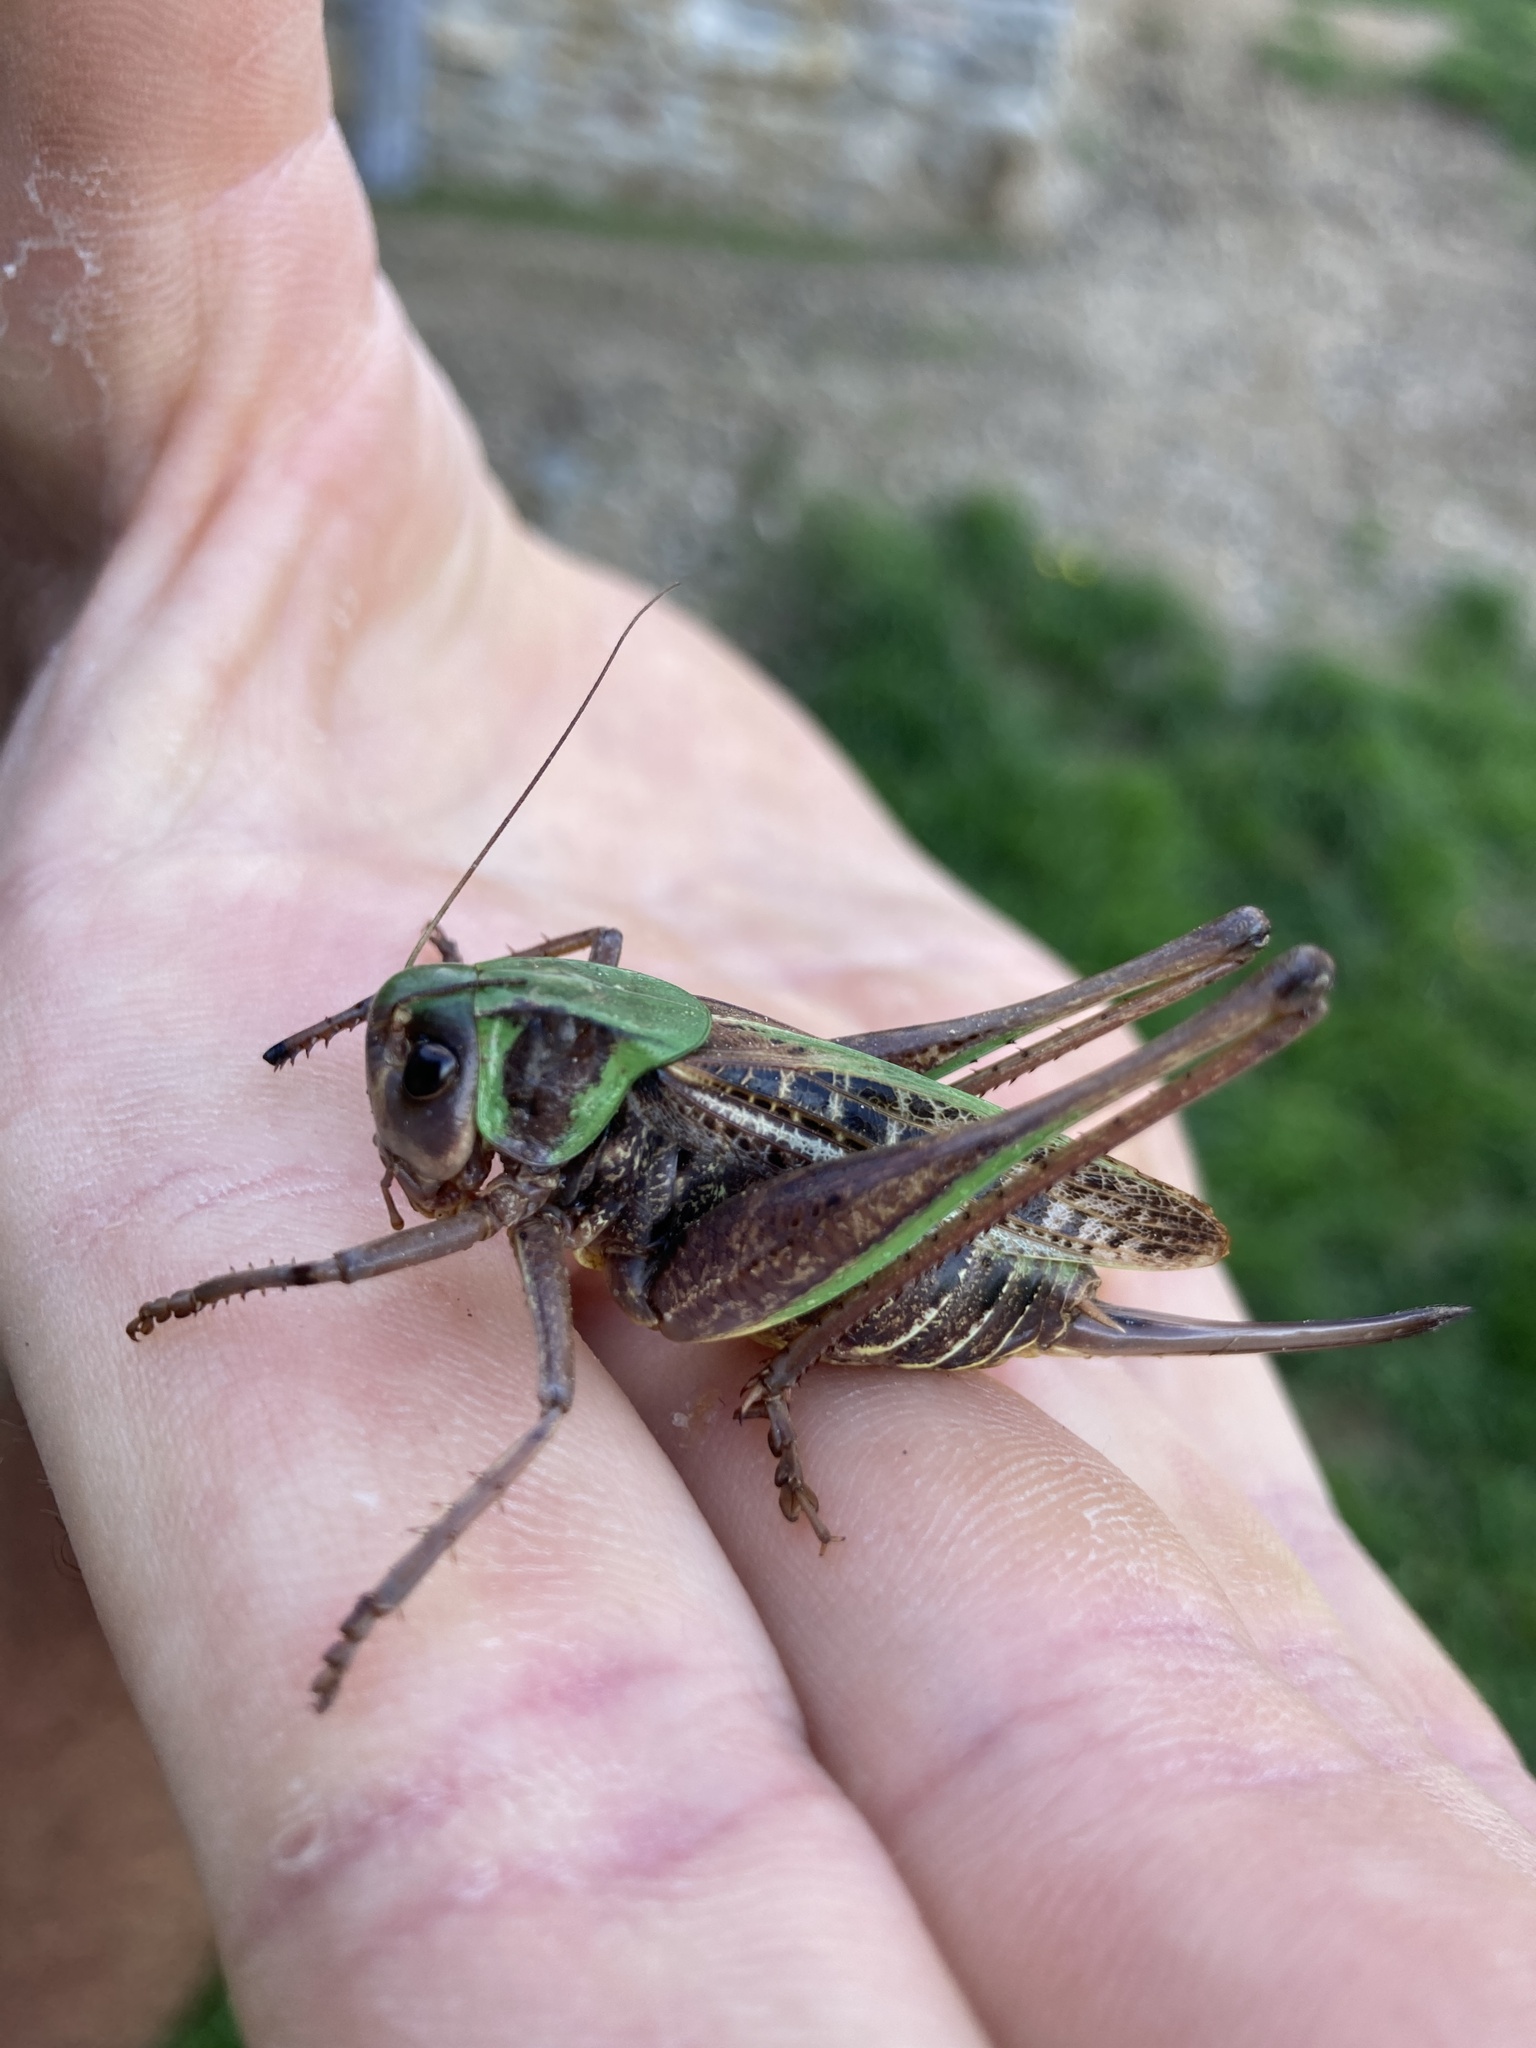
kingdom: Animalia
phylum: Arthropoda
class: Insecta
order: Orthoptera
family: Tettigoniidae
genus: Decticus
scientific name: Decticus verrucivorus
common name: Wart-biter
